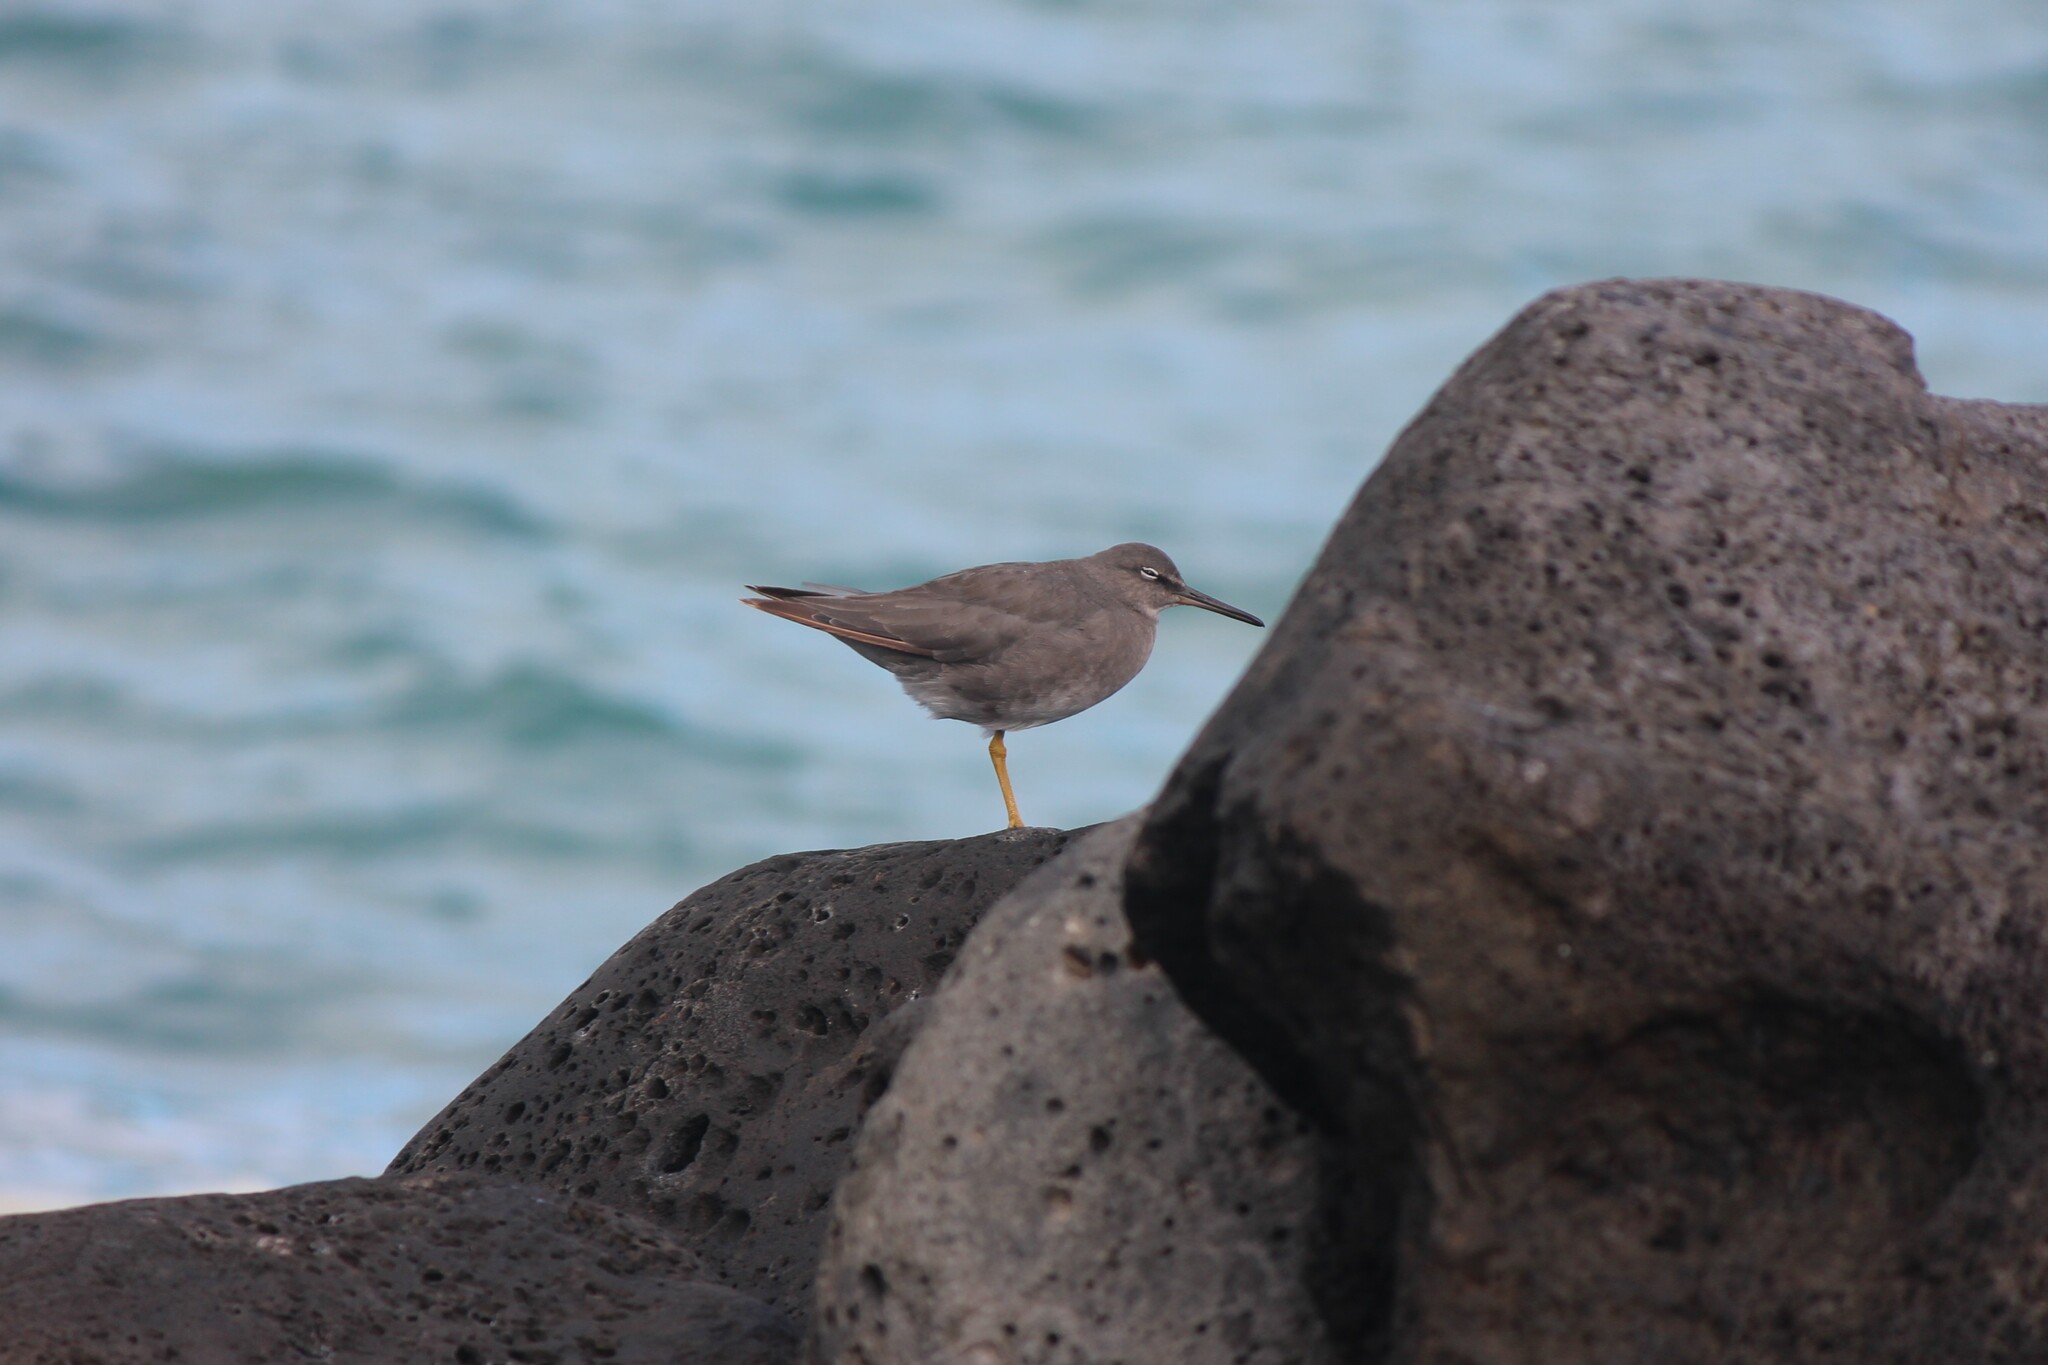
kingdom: Animalia
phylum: Chordata
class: Aves
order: Charadriiformes
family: Scolopacidae
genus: Tringa
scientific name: Tringa incana
